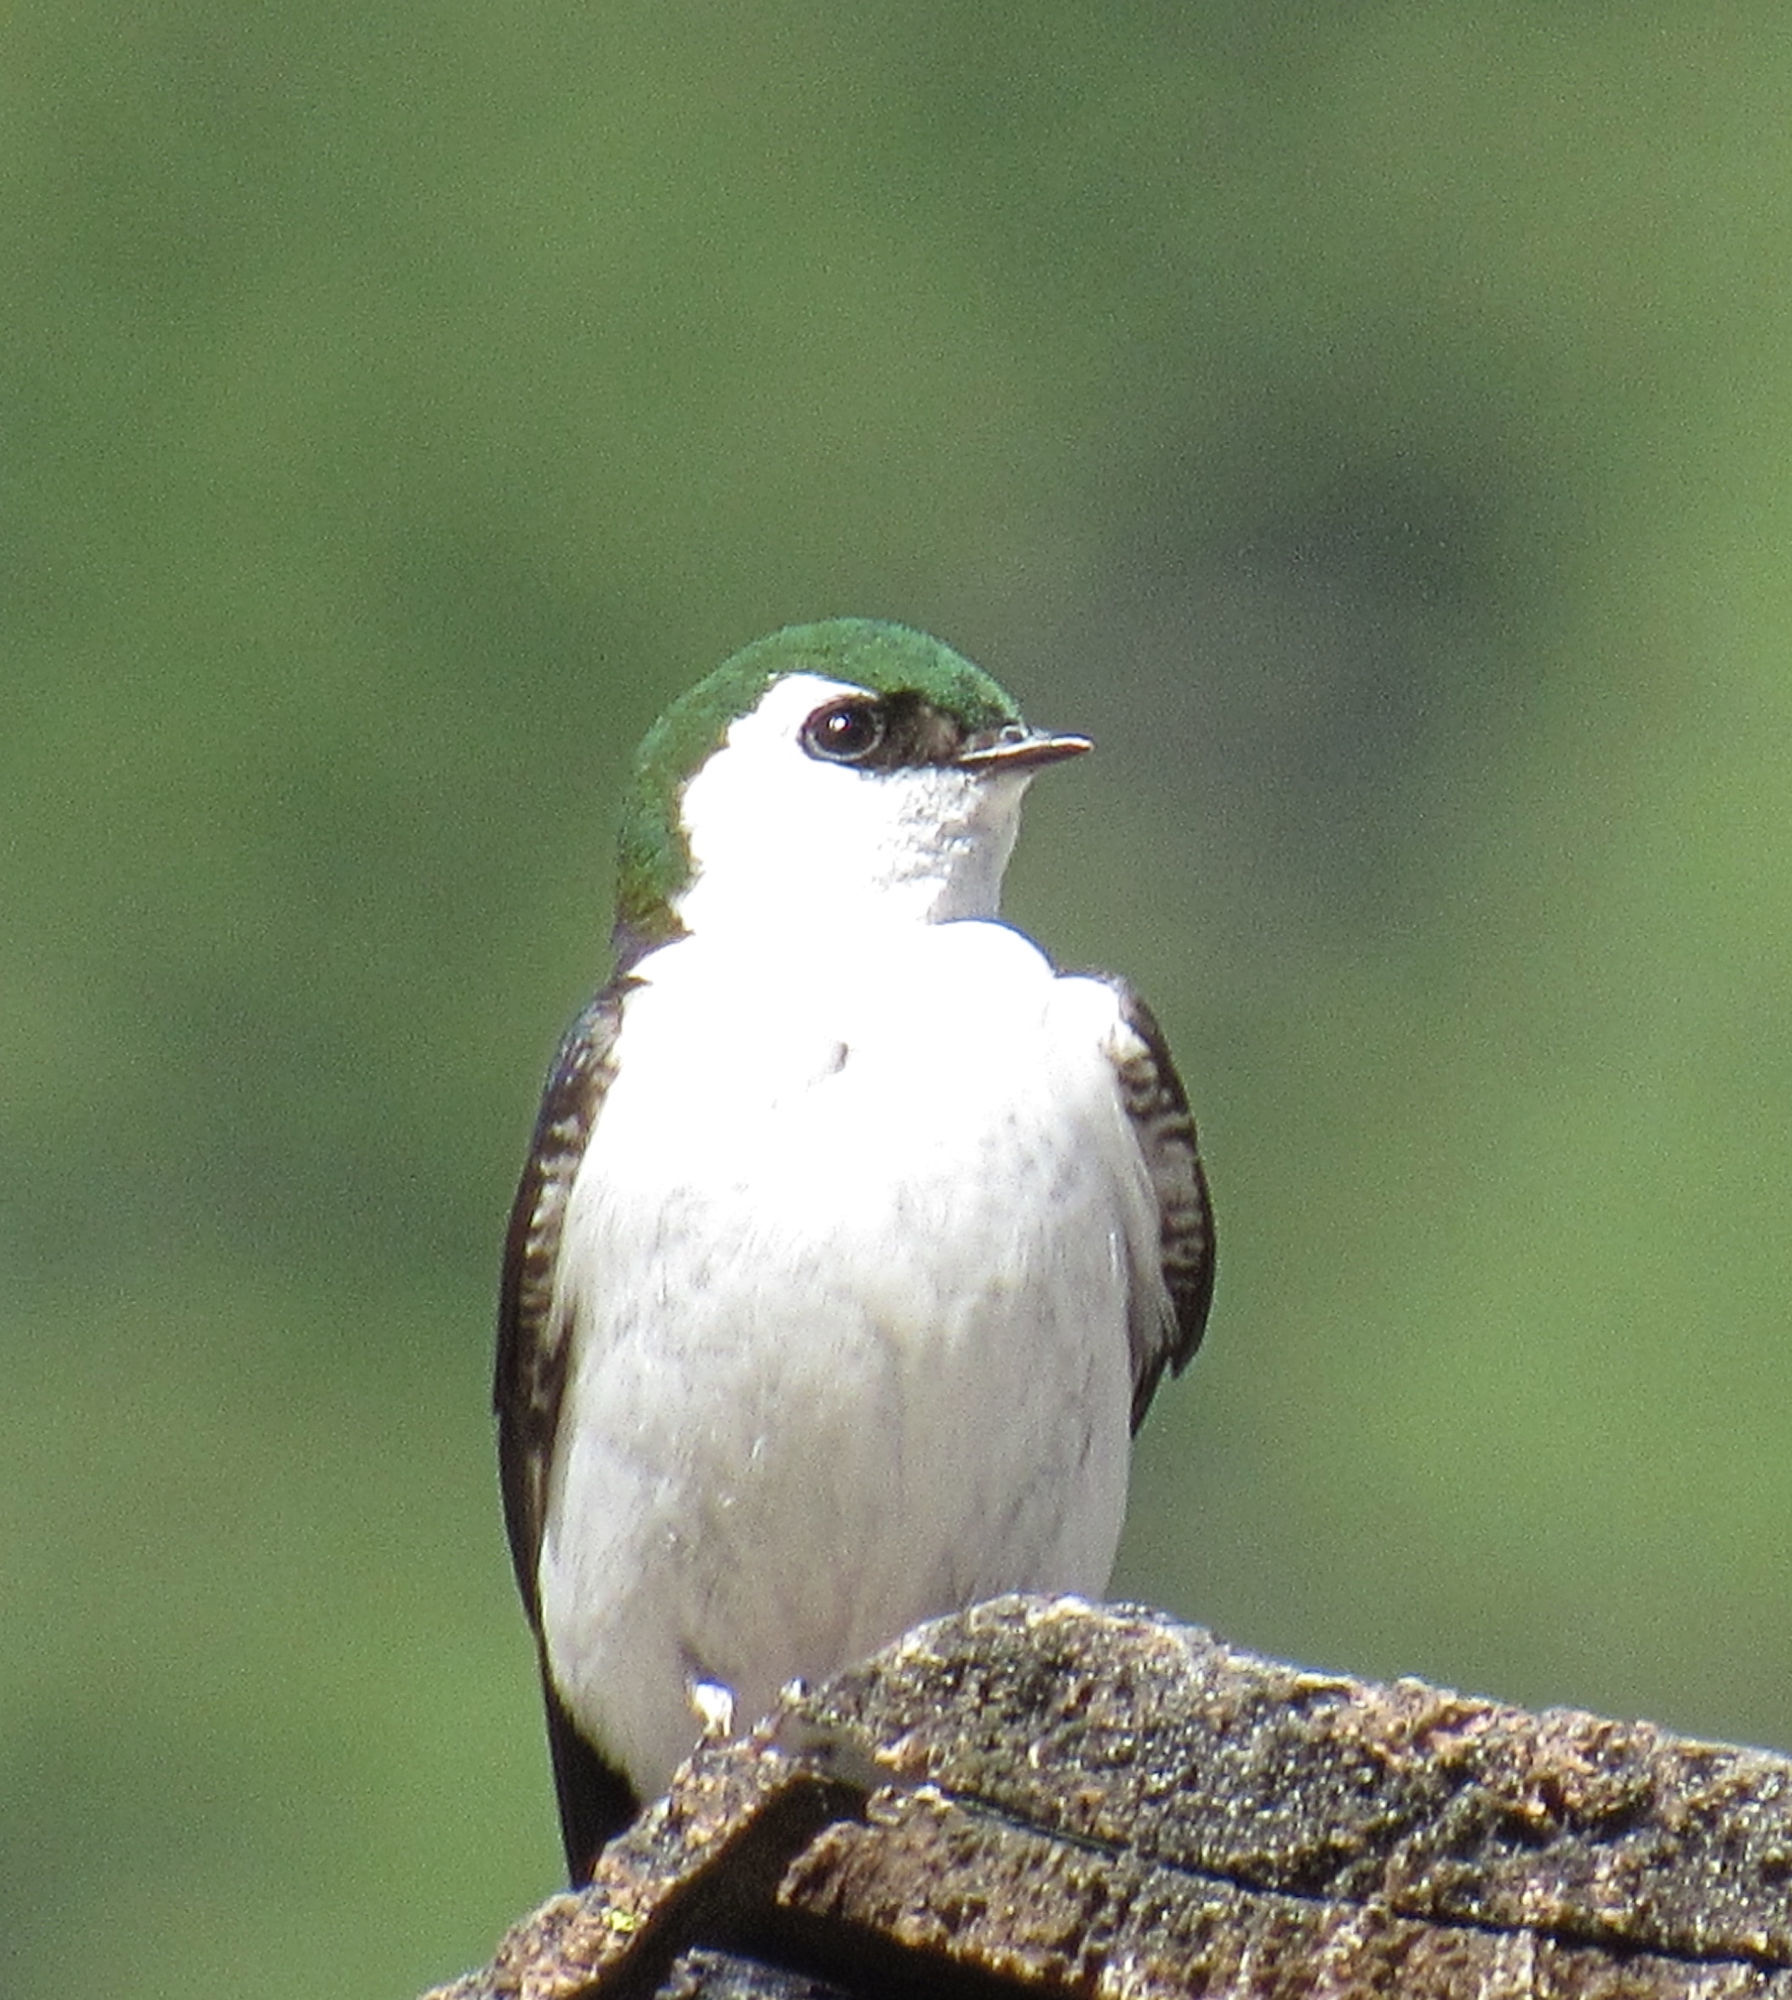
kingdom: Animalia
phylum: Chordata
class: Aves
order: Passeriformes
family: Hirundinidae
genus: Tachycineta
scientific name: Tachycineta thalassina
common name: Violet-green swallow
